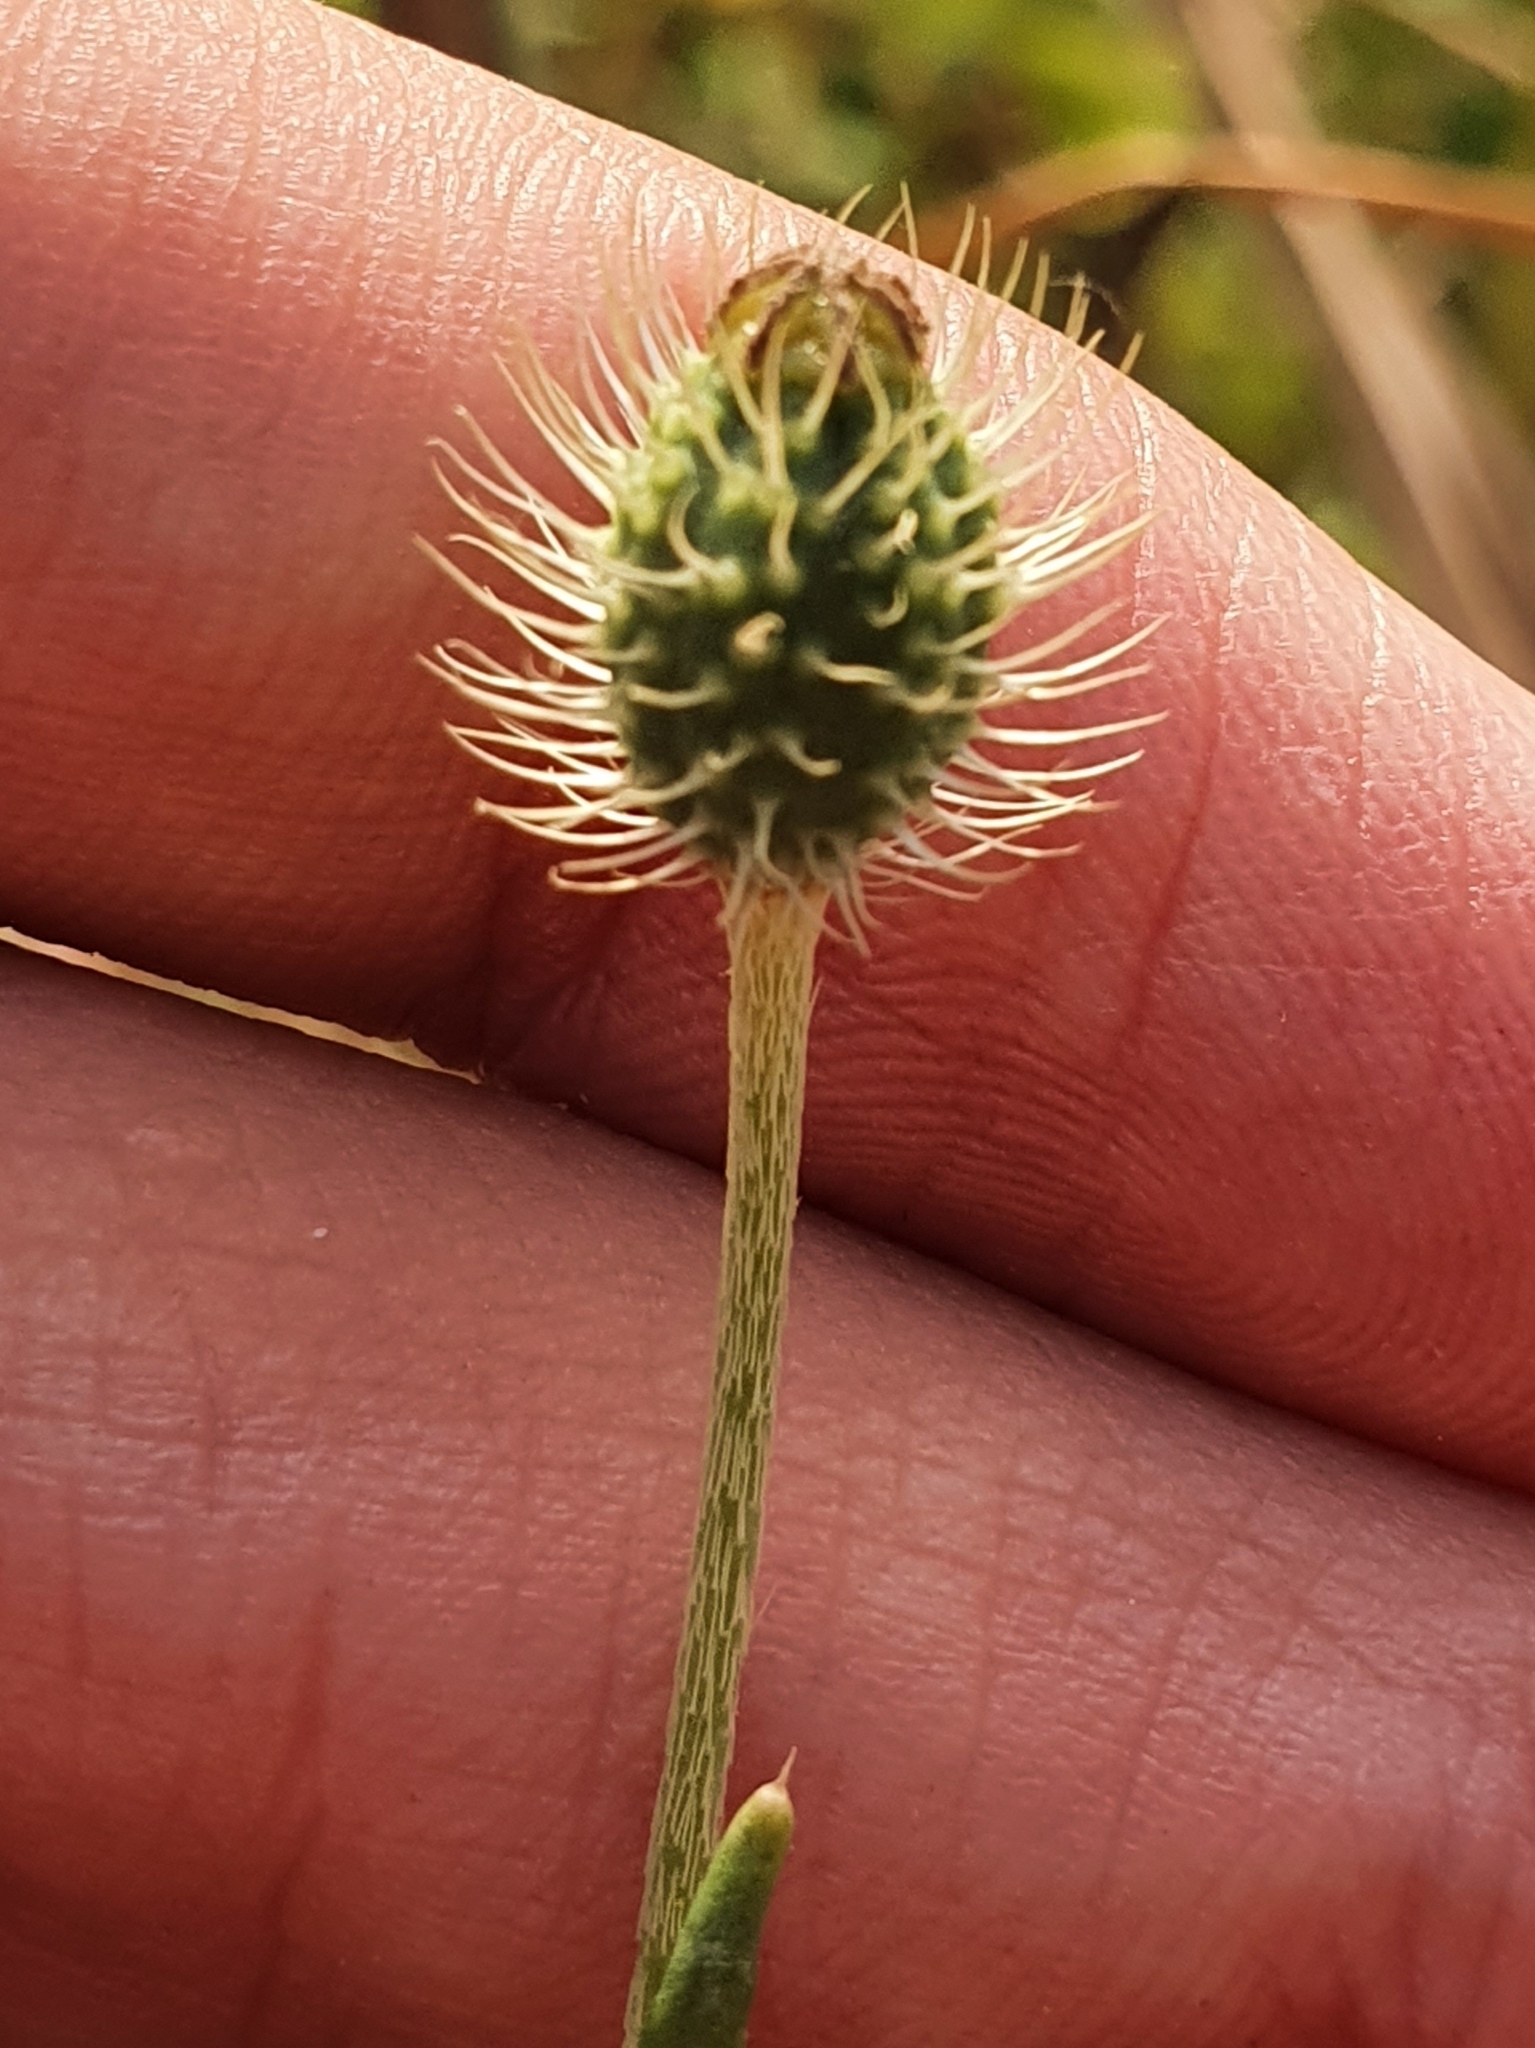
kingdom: Plantae
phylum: Tracheophyta
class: Magnoliopsida
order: Ranunculales
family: Papaveraceae
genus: Roemeria
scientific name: Roemeria hispida
